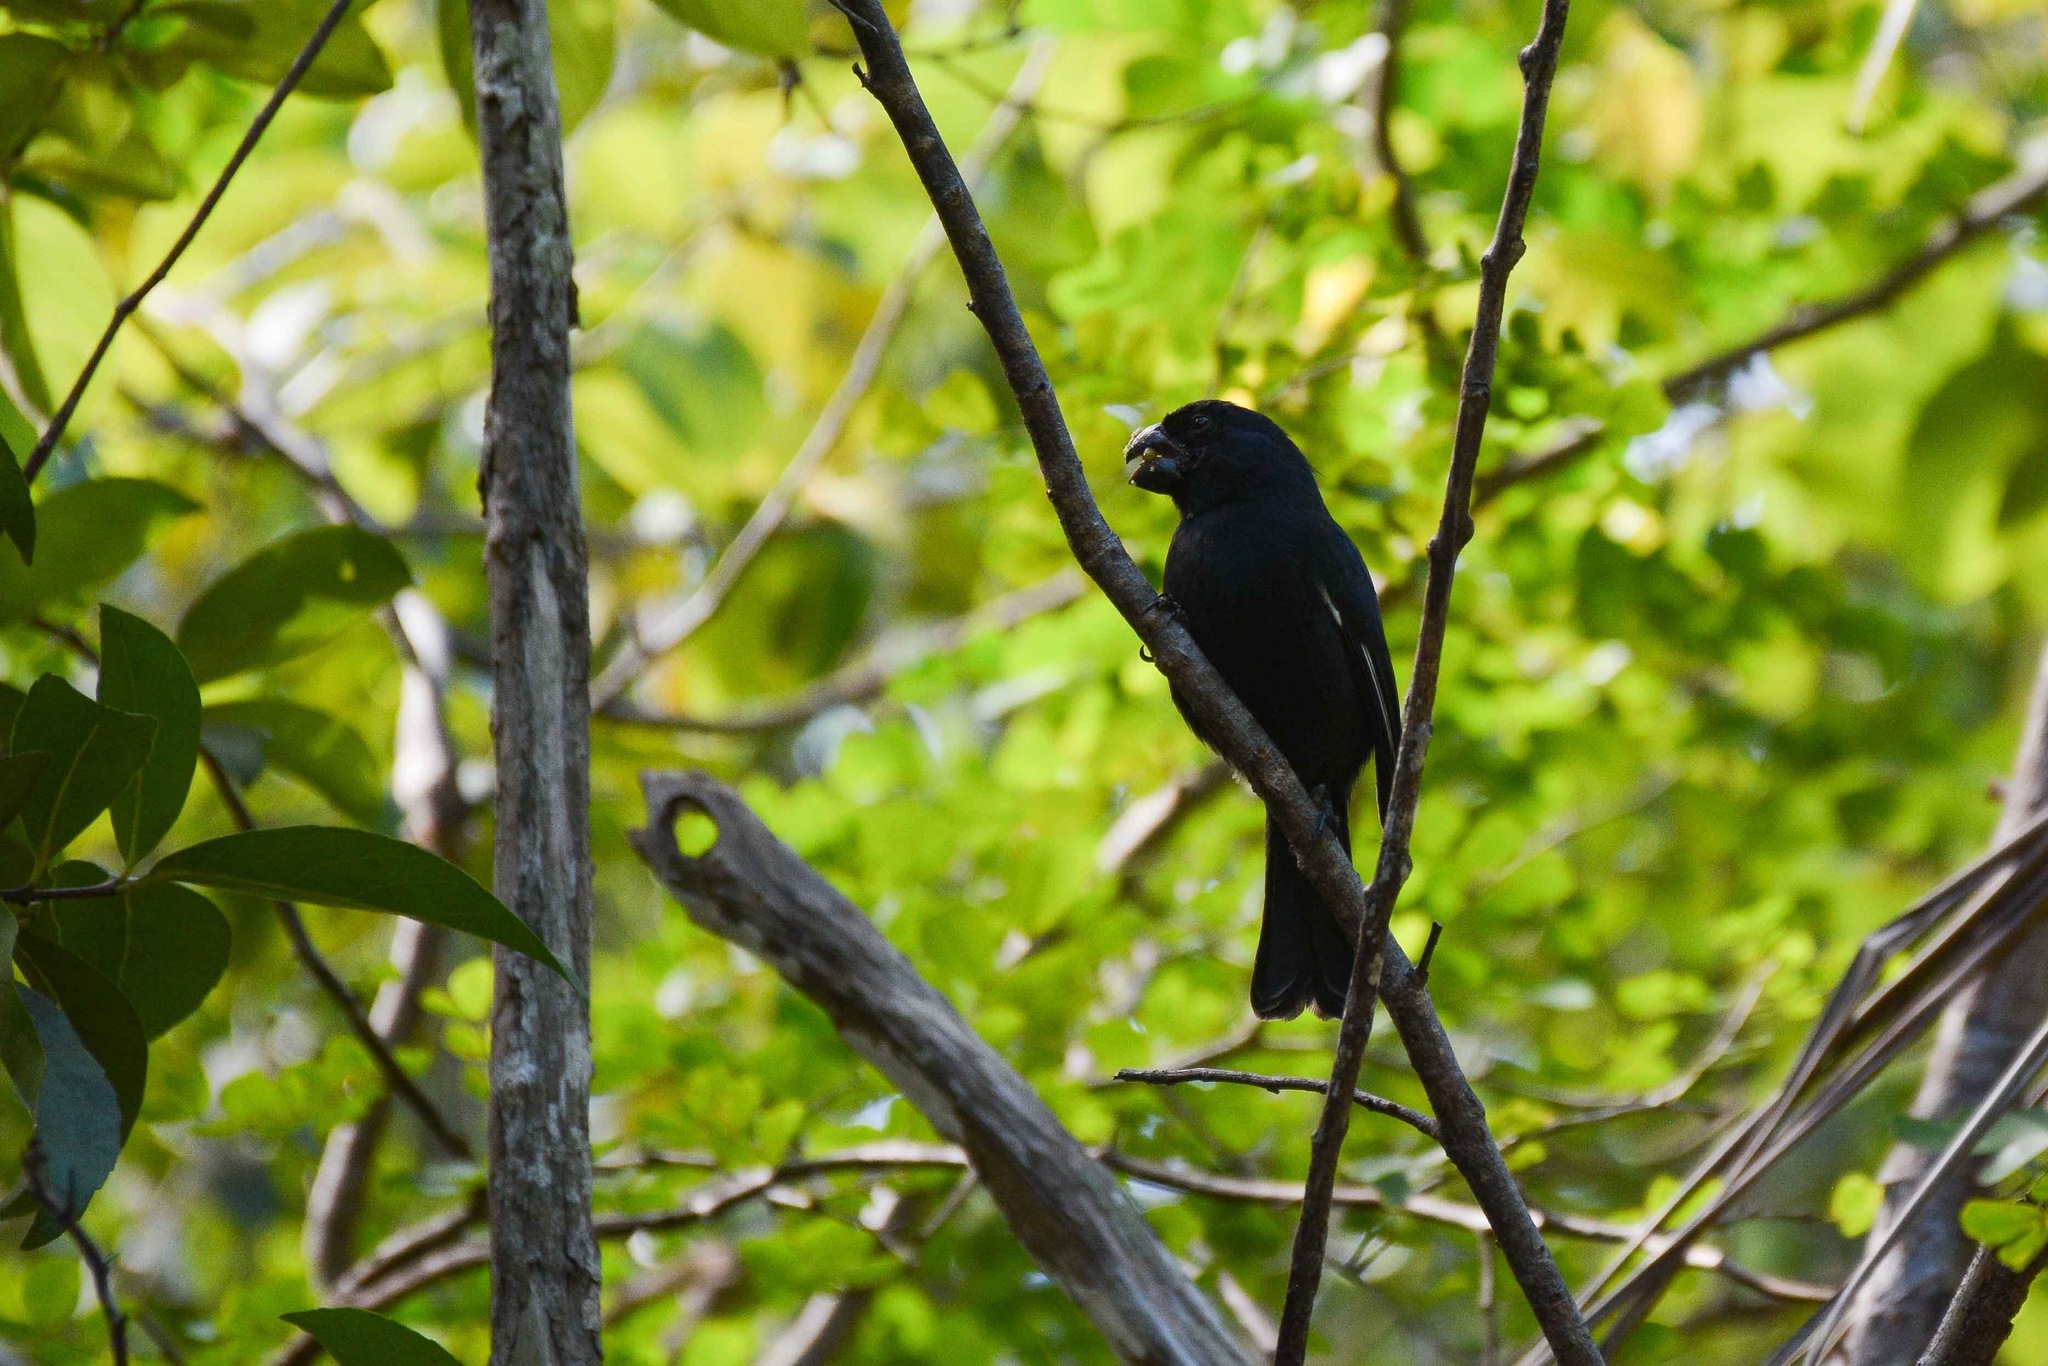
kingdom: Animalia
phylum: Chordata
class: Aves
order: Passeriformes
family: Thraupidae
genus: Melopyrrha
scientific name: Melopyrrha nigra
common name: Cuban bullfinch
